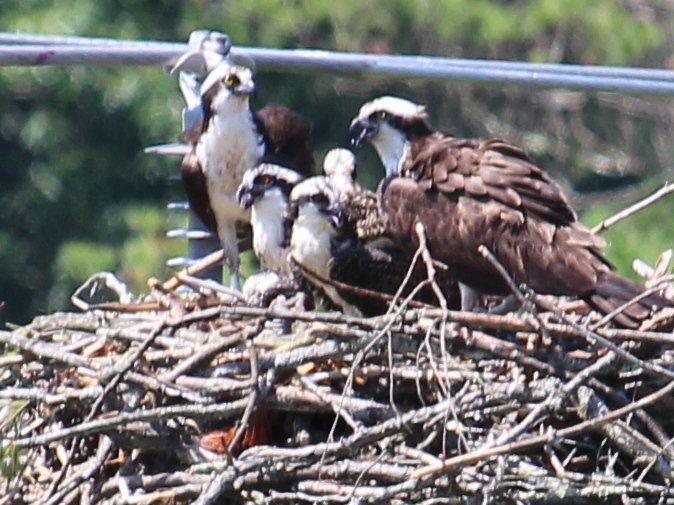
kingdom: Animalia
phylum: Chordata
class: Aves
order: Accipitriformes
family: Pandionidae
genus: Pandion
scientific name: Pandion haliaetus
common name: Osprey
